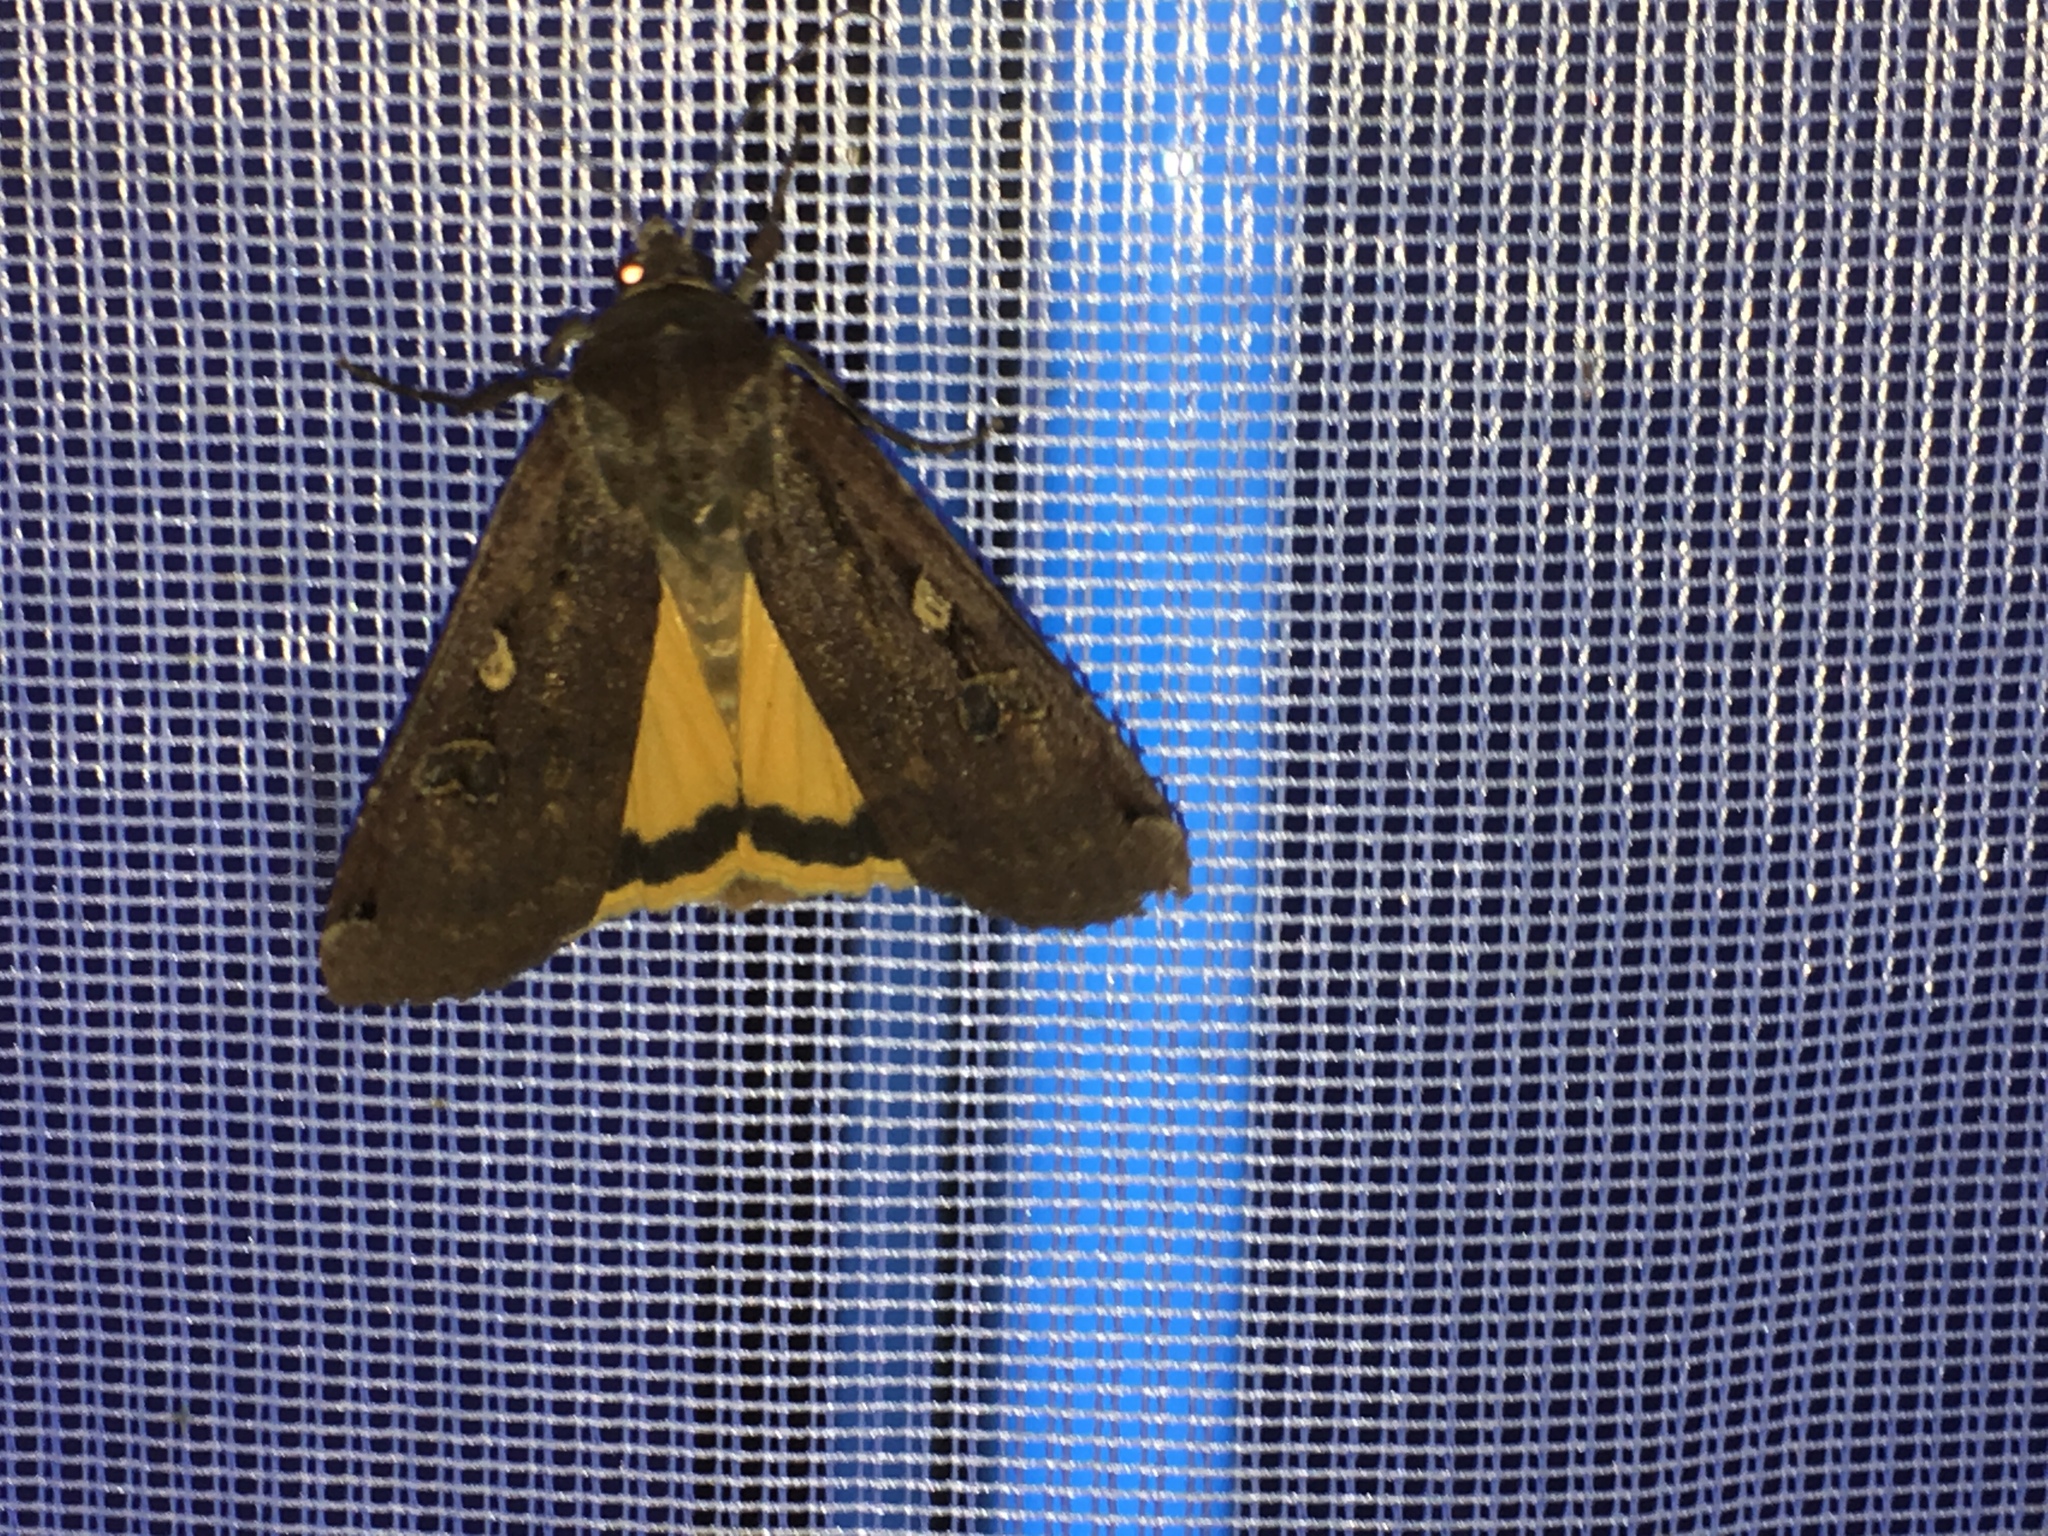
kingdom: Animalia
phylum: Arthropoda
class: Insecta
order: Lepidoptera
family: Noctuidae
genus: Noctua
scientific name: Noctua pronuba
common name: Large yellow underwing
